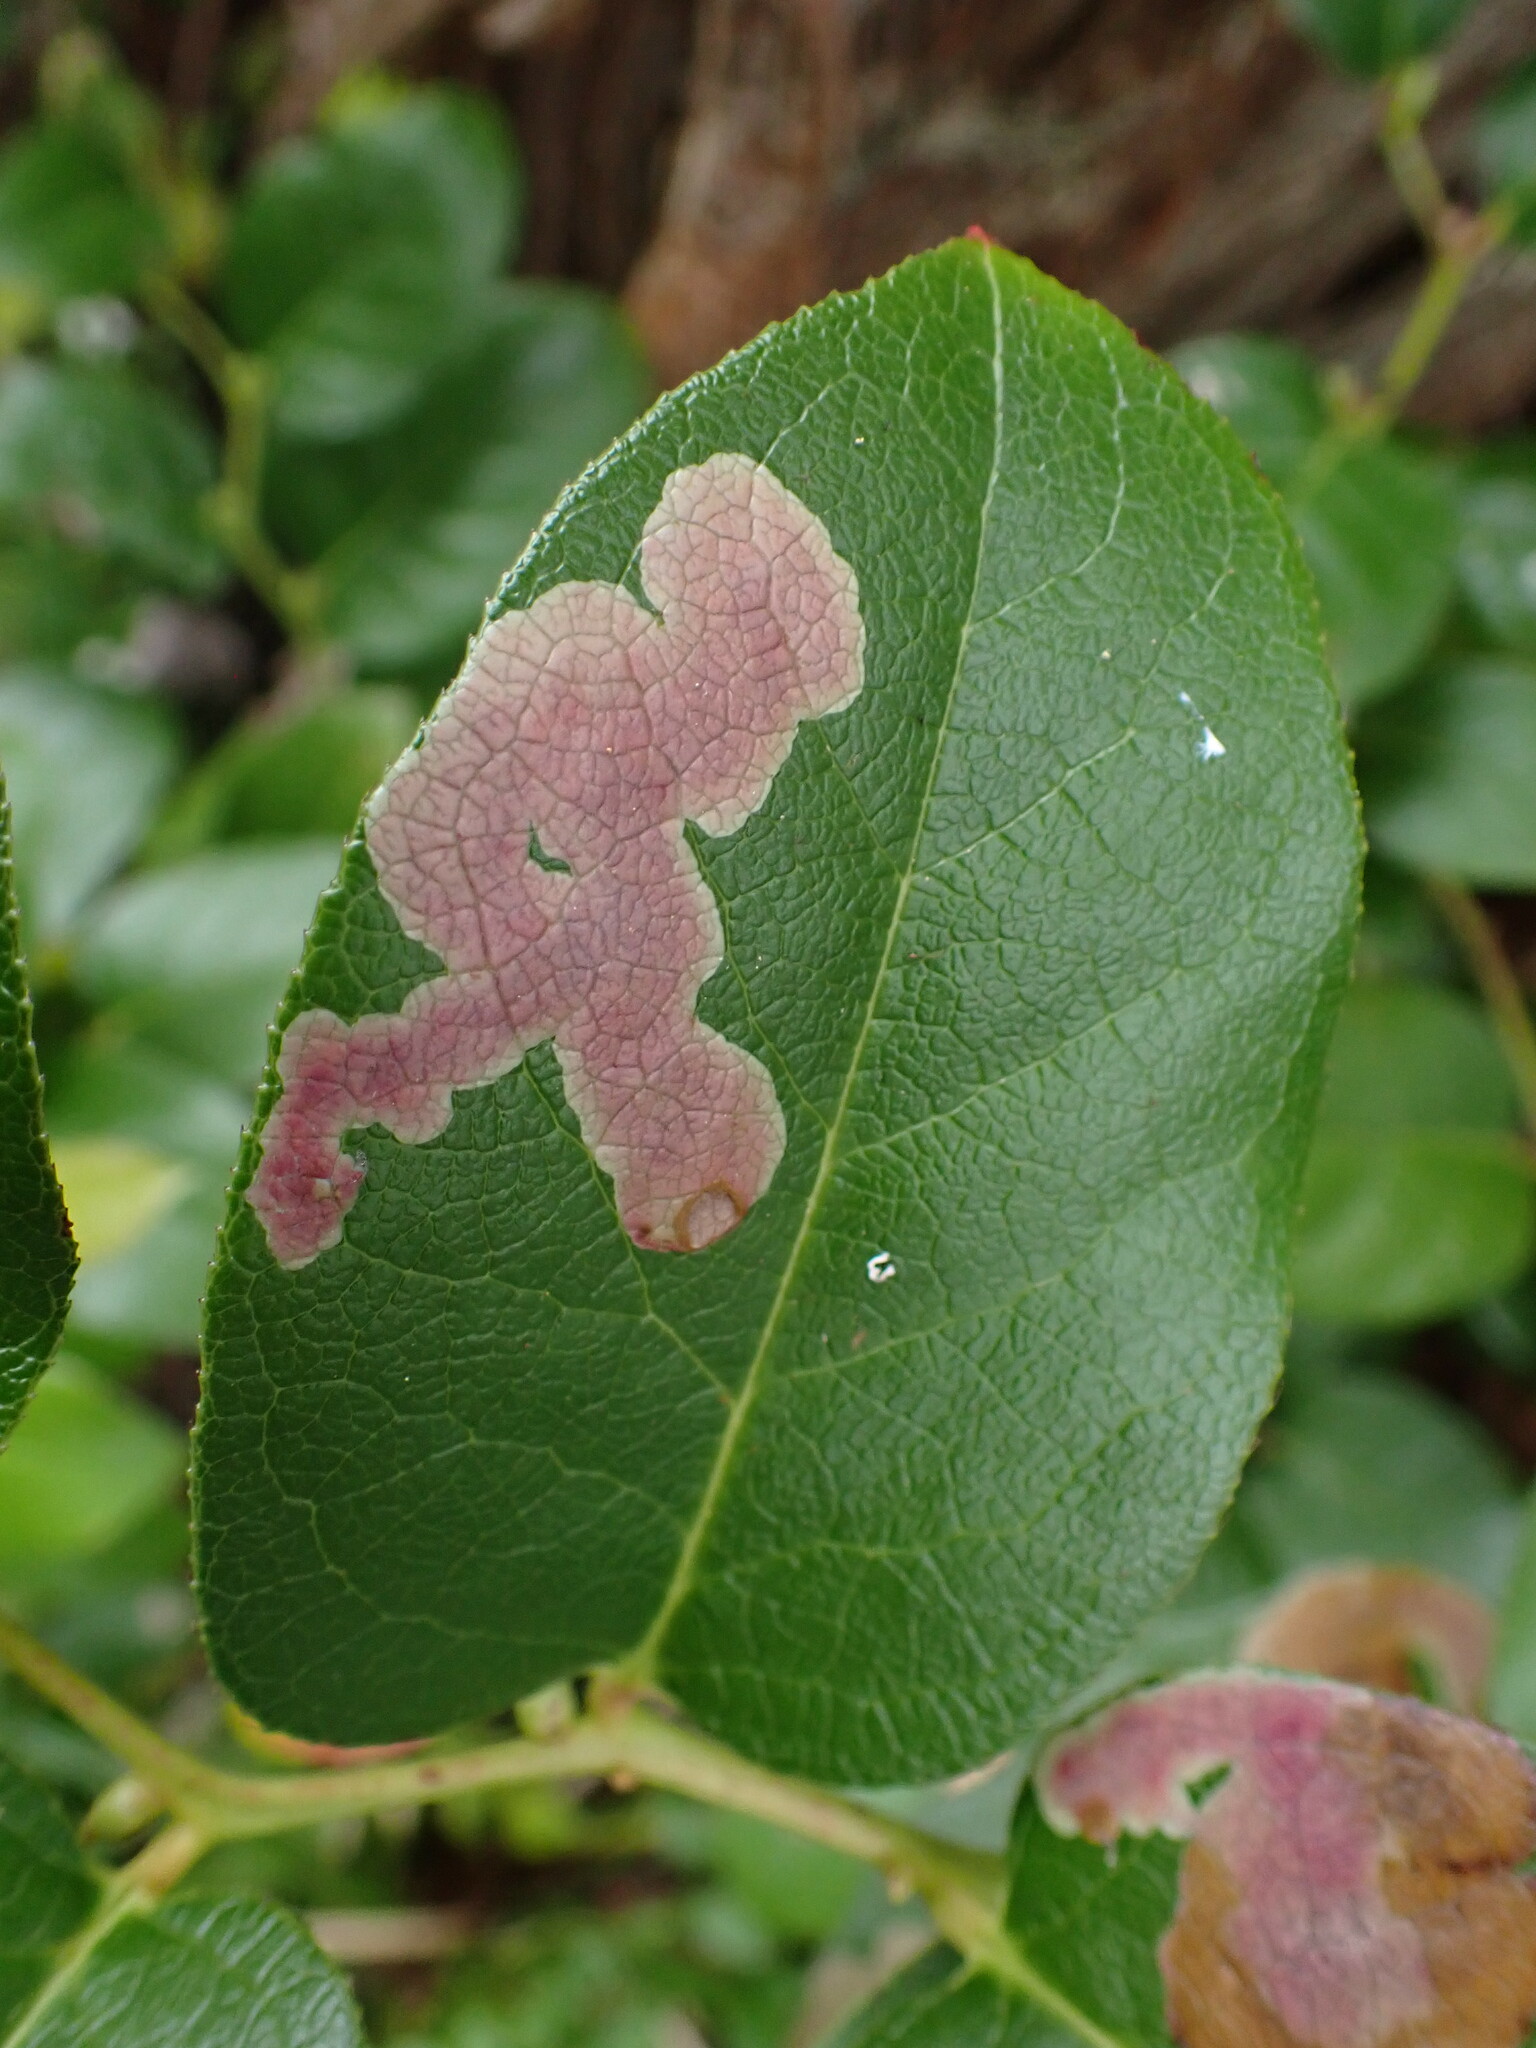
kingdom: Plantae
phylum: Tracheophyta
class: Magnoliopsida
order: Ericales
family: Ericaceae
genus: Gaultheria
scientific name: Gaultheria shallon
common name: Shallon
